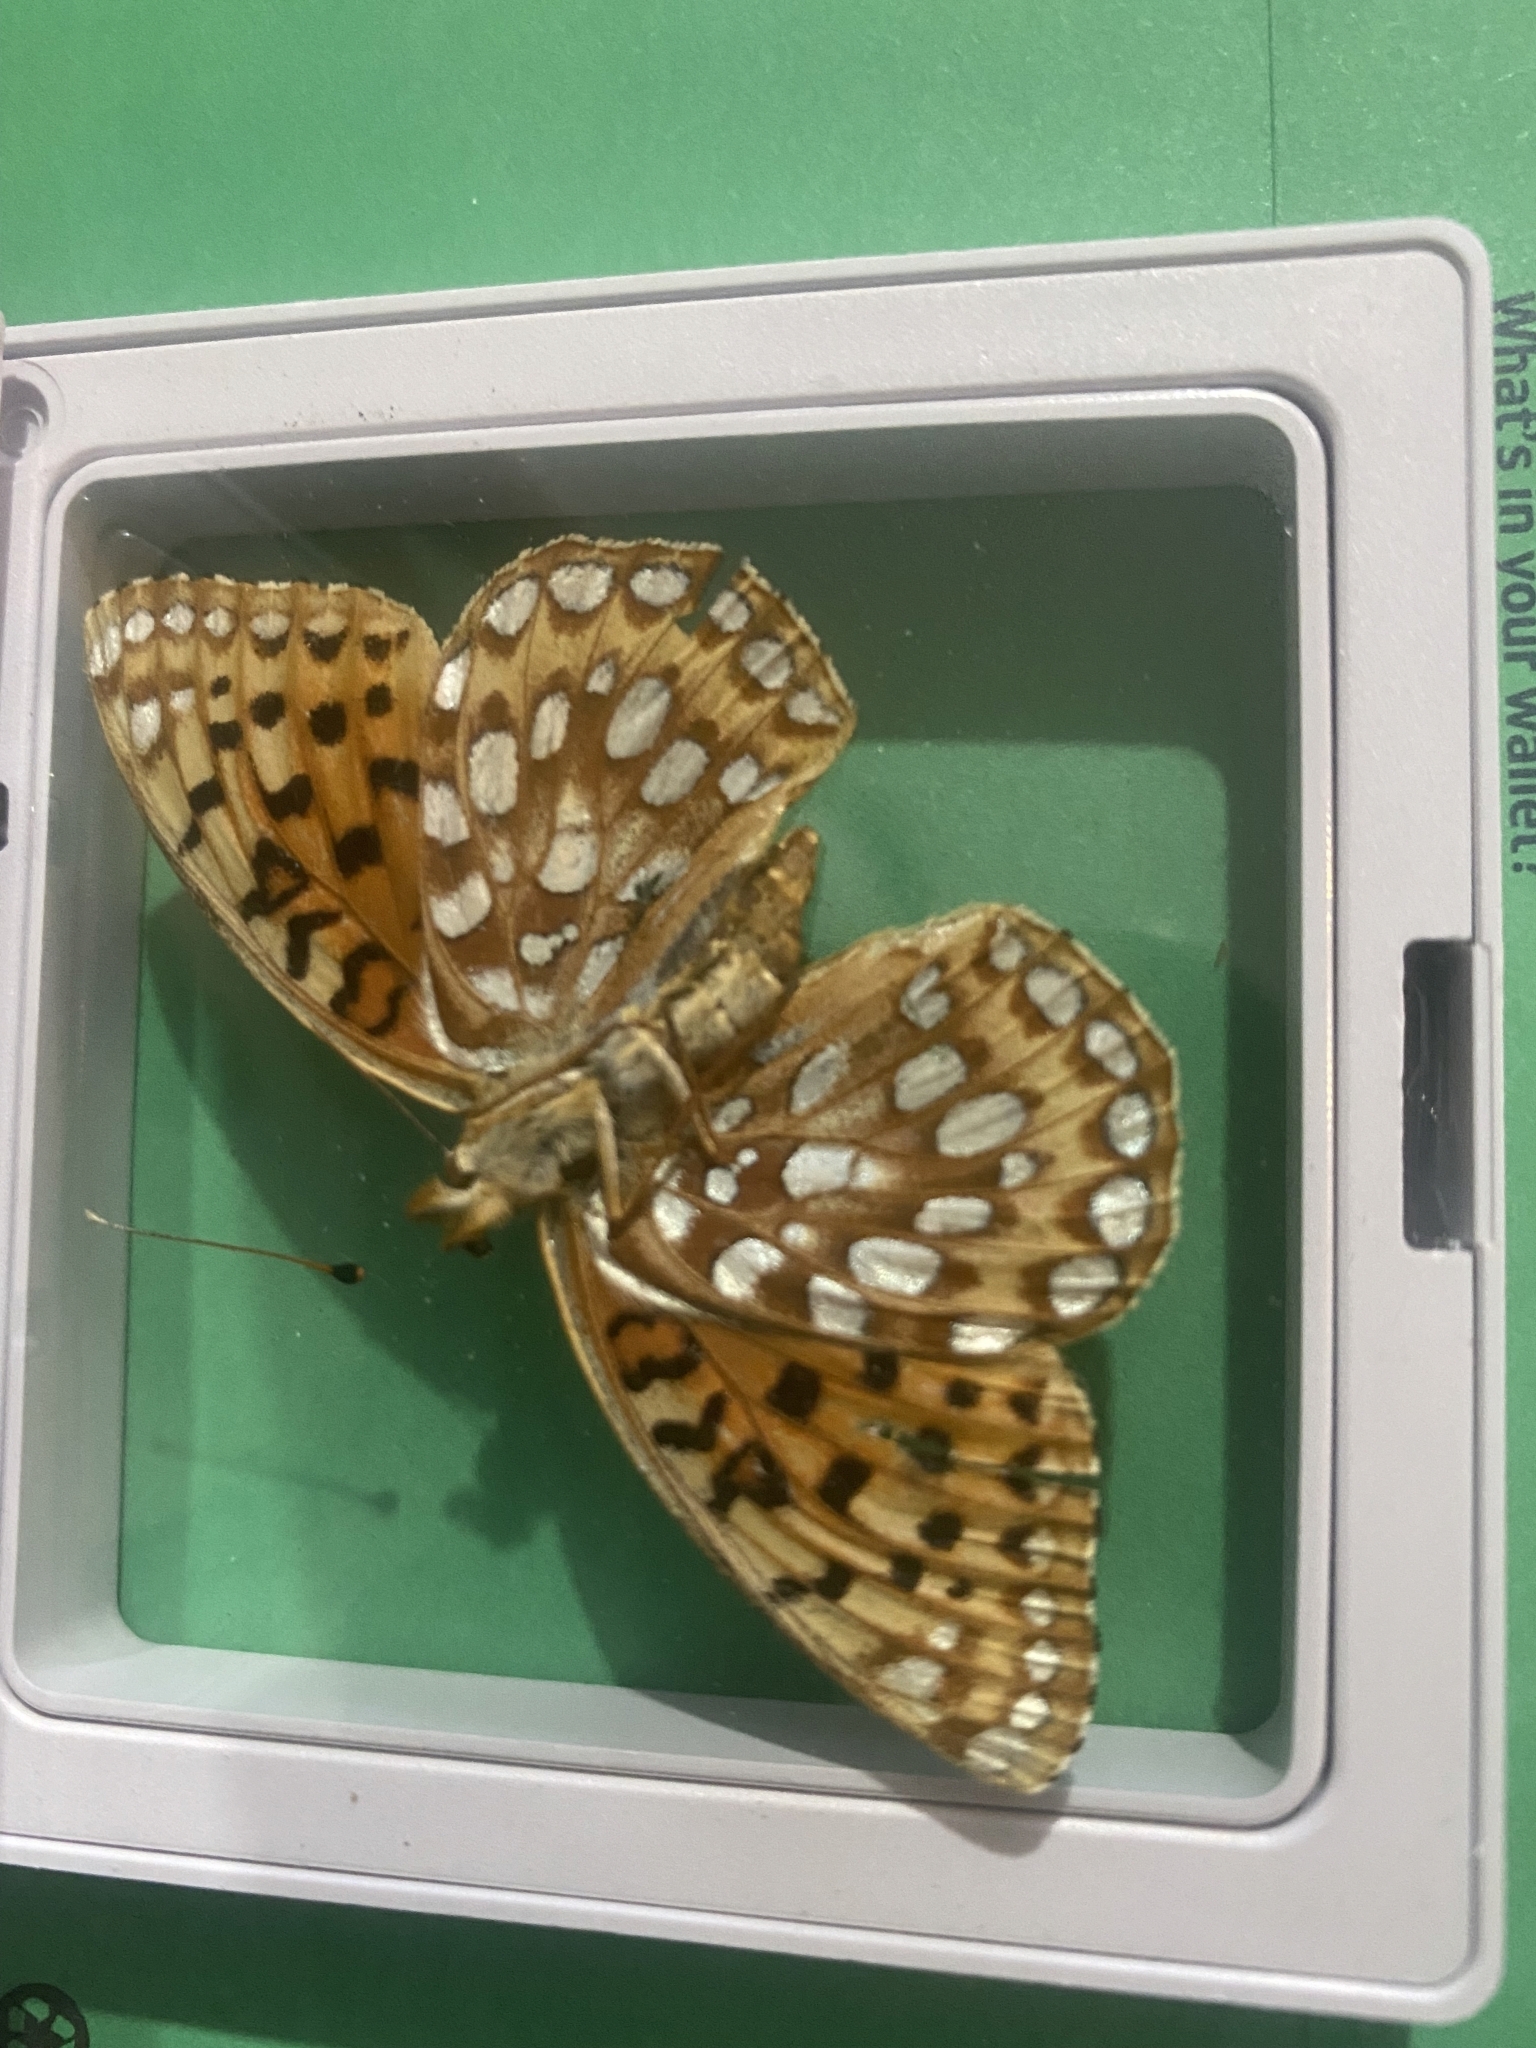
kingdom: Animalia
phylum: Arthropoda
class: Insecta
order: Lepidoptera
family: Nymphalidae
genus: Speyeria
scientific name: Speyeria zerene
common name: Zerene fritillary
